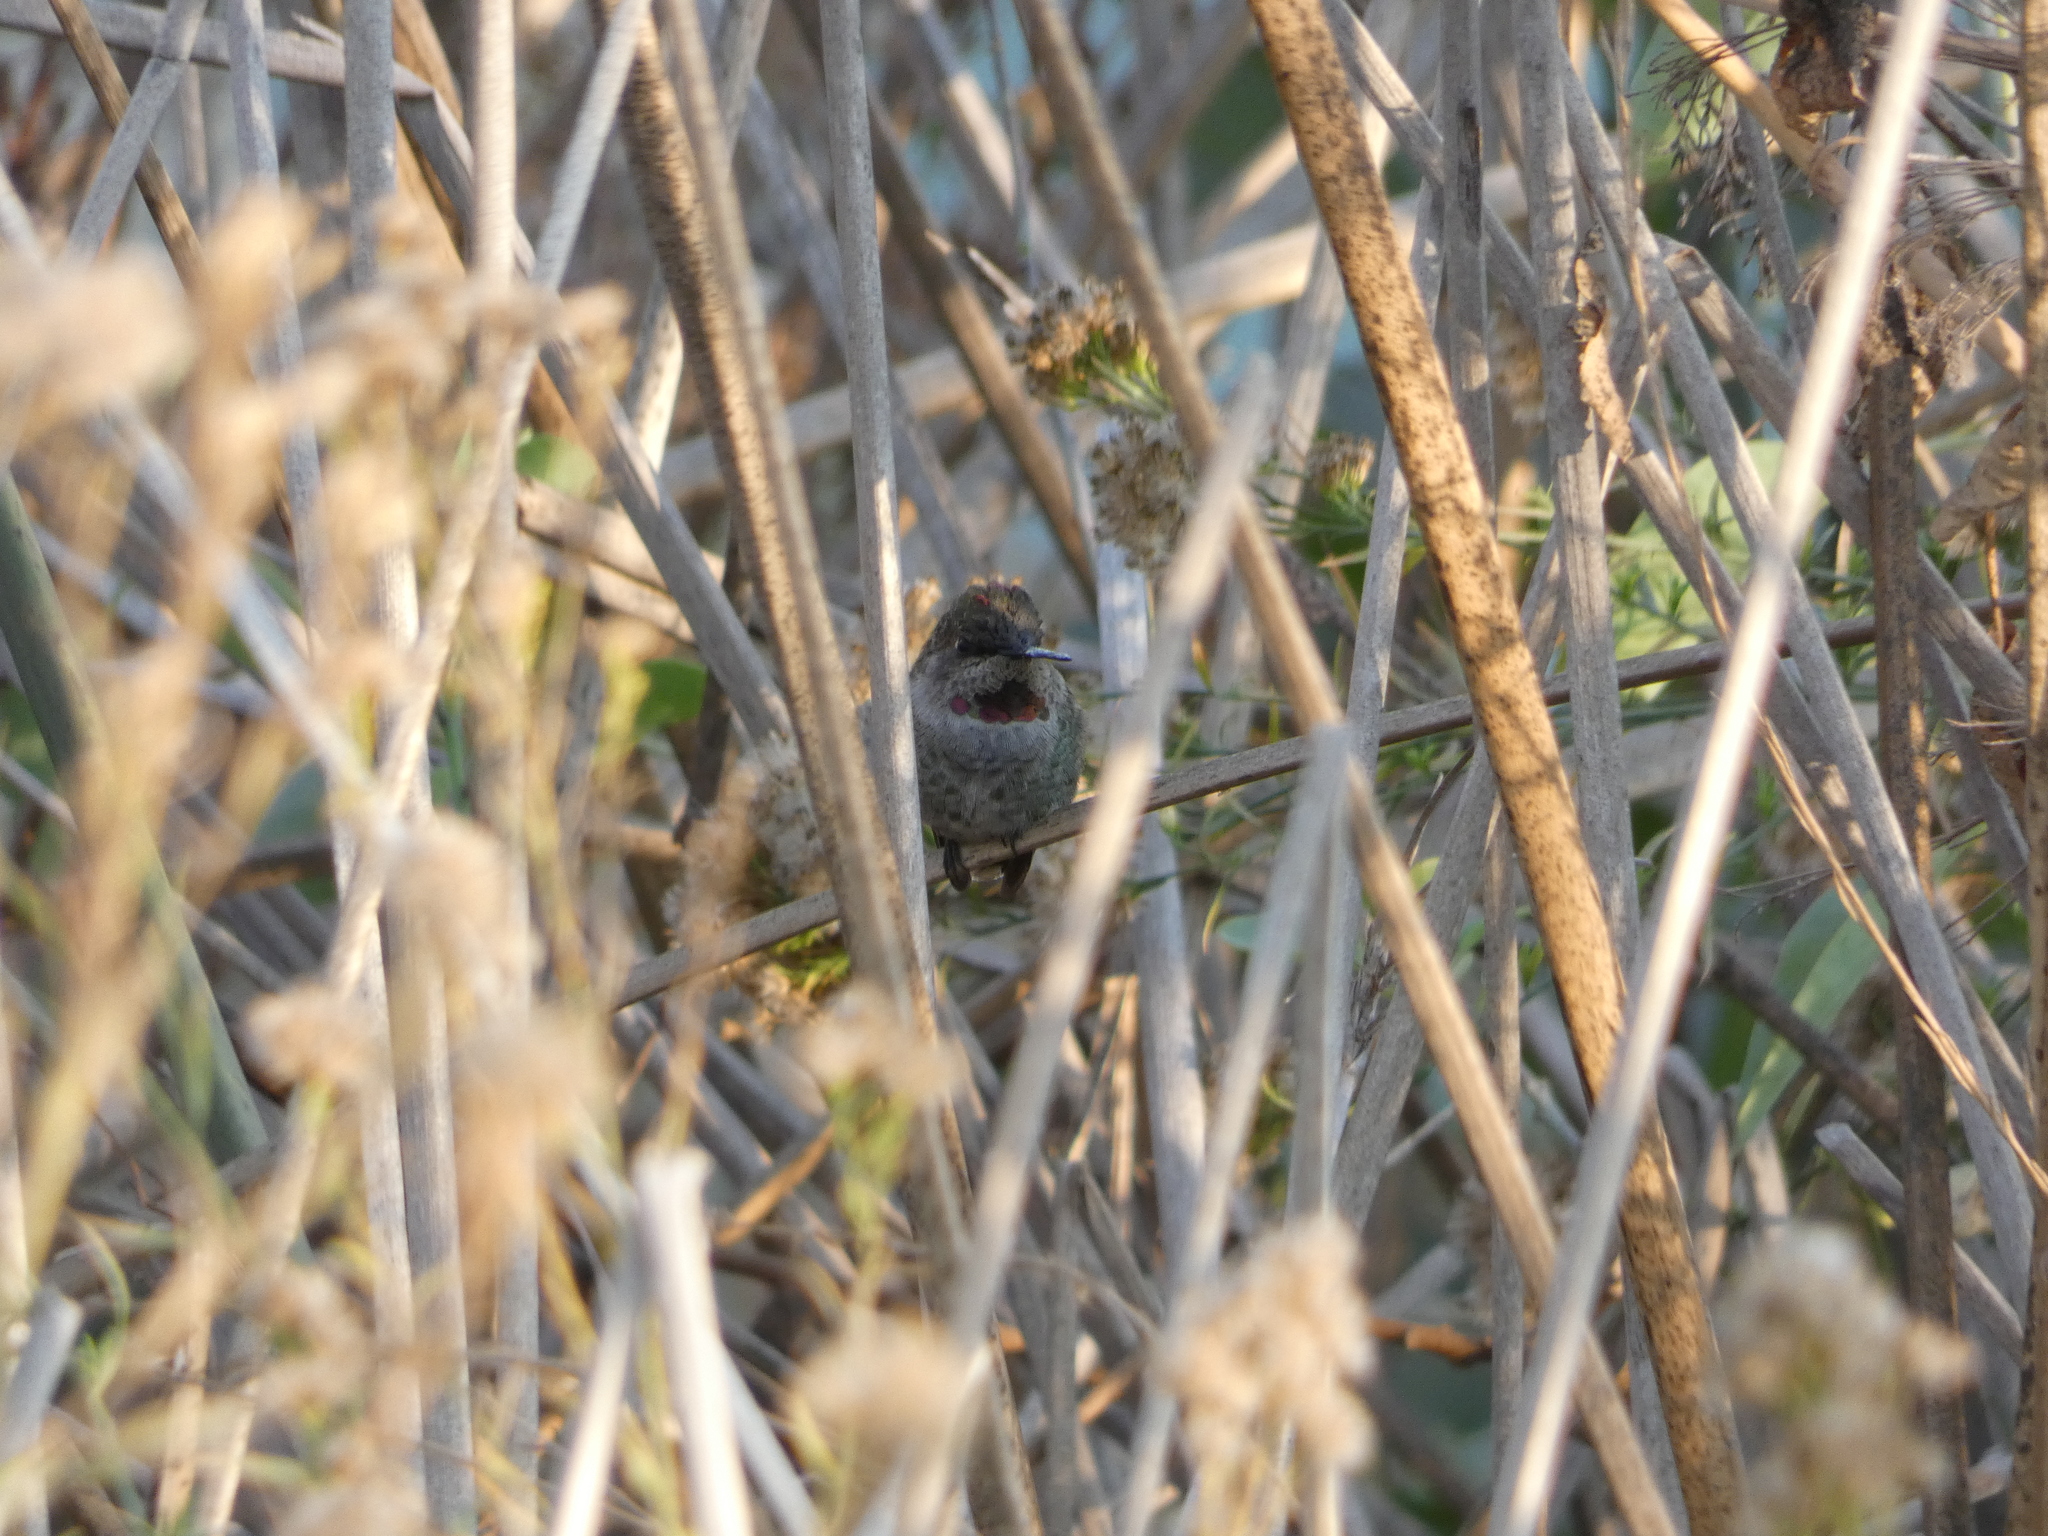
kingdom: Animalia
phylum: Chordata
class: Aves
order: Apodiformes
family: Trochilidae
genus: Calypte
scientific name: Calypte anna
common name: Anna's hummingbird
